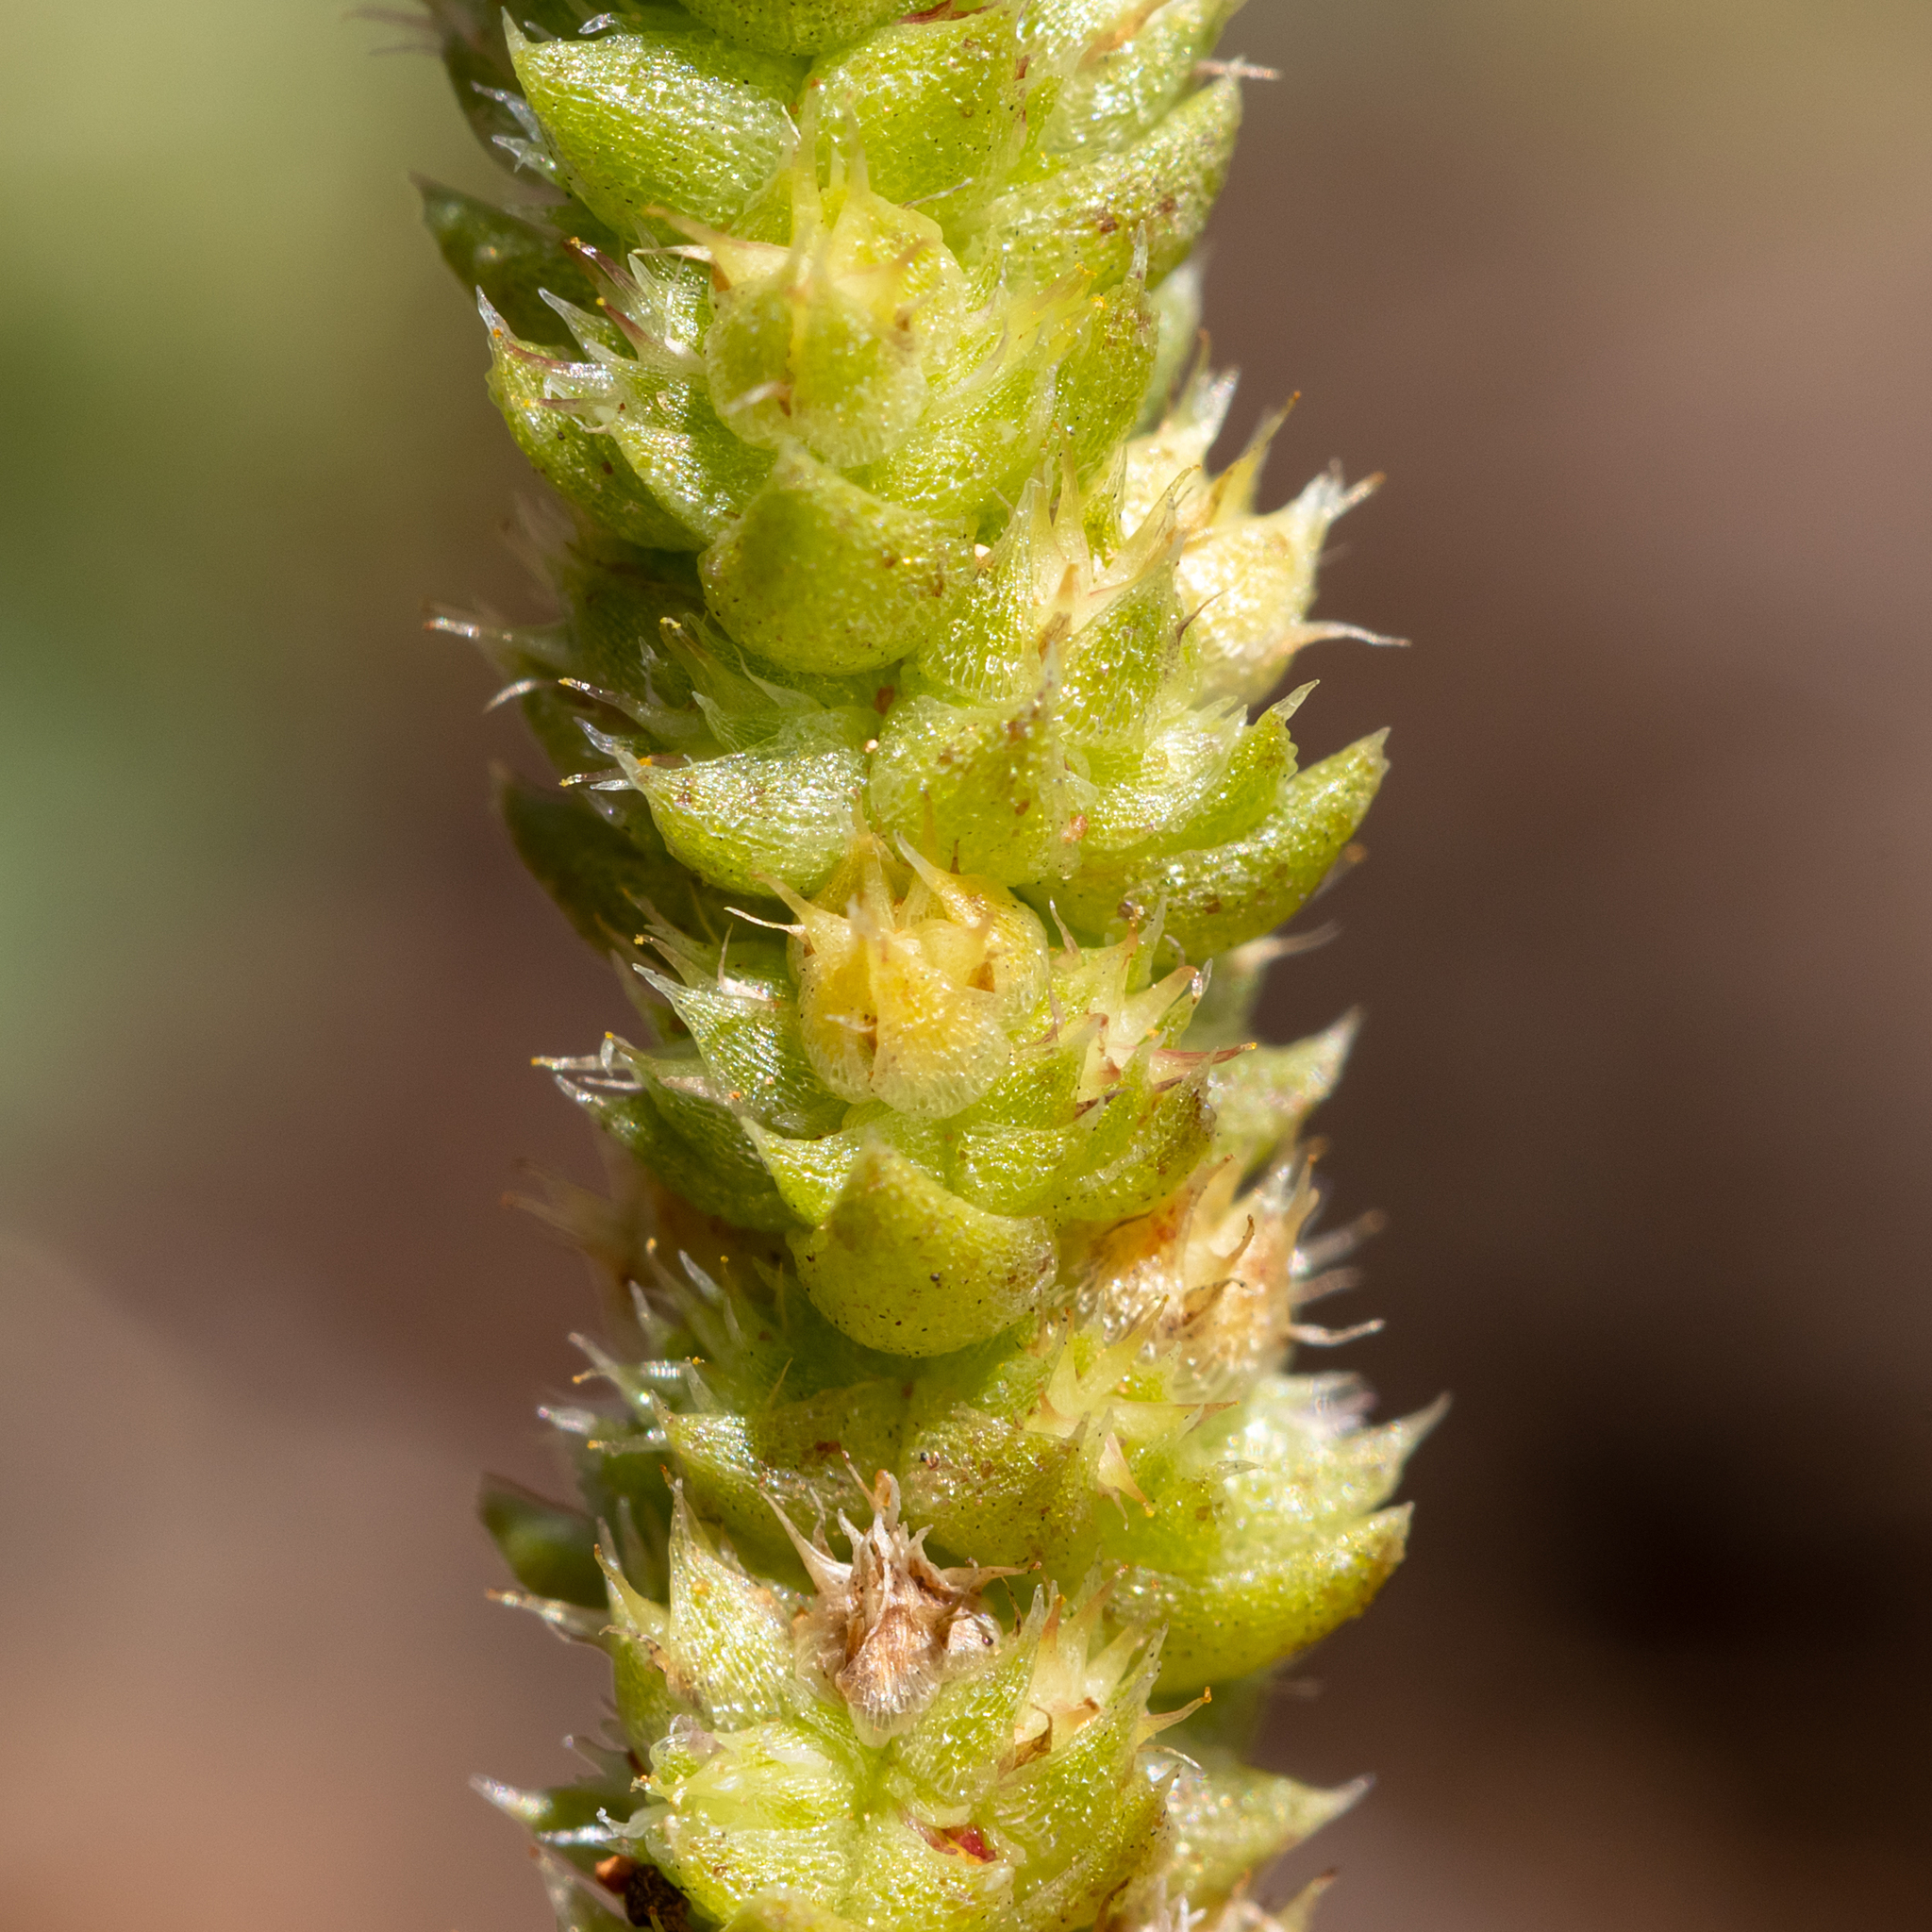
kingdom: Plantae
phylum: Tracheophyta
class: Magnoliopsida
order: Saxifragales
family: Crassulaceae
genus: Crassula
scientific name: Crassula colorata
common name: Dense pigmyweed
